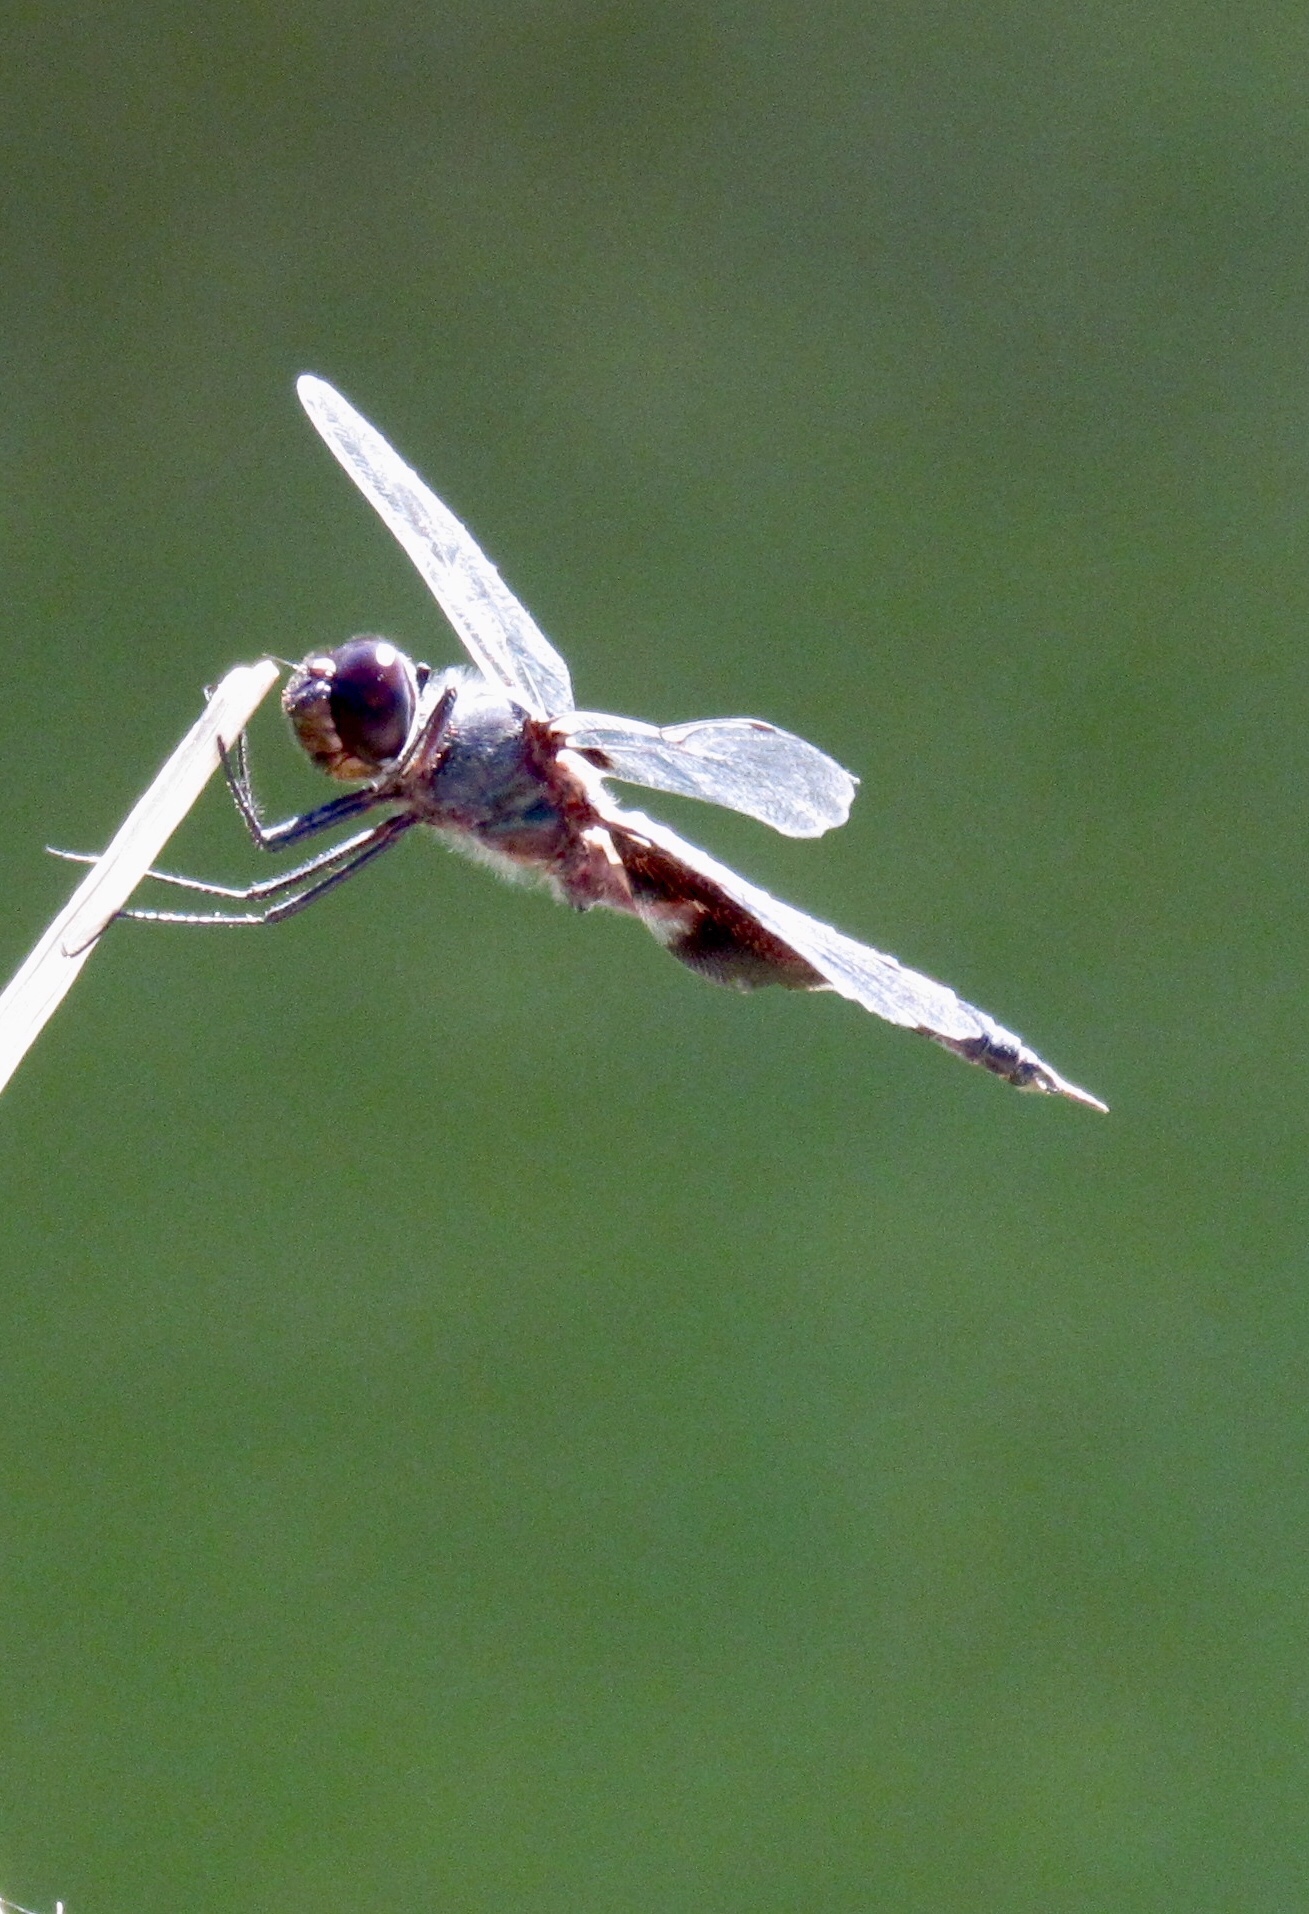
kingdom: Animalia
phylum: Arthropoda
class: Insecta
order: Odonata
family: Libellulidae
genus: Tramea
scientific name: Tramea lacerata
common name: Black saddlebags
